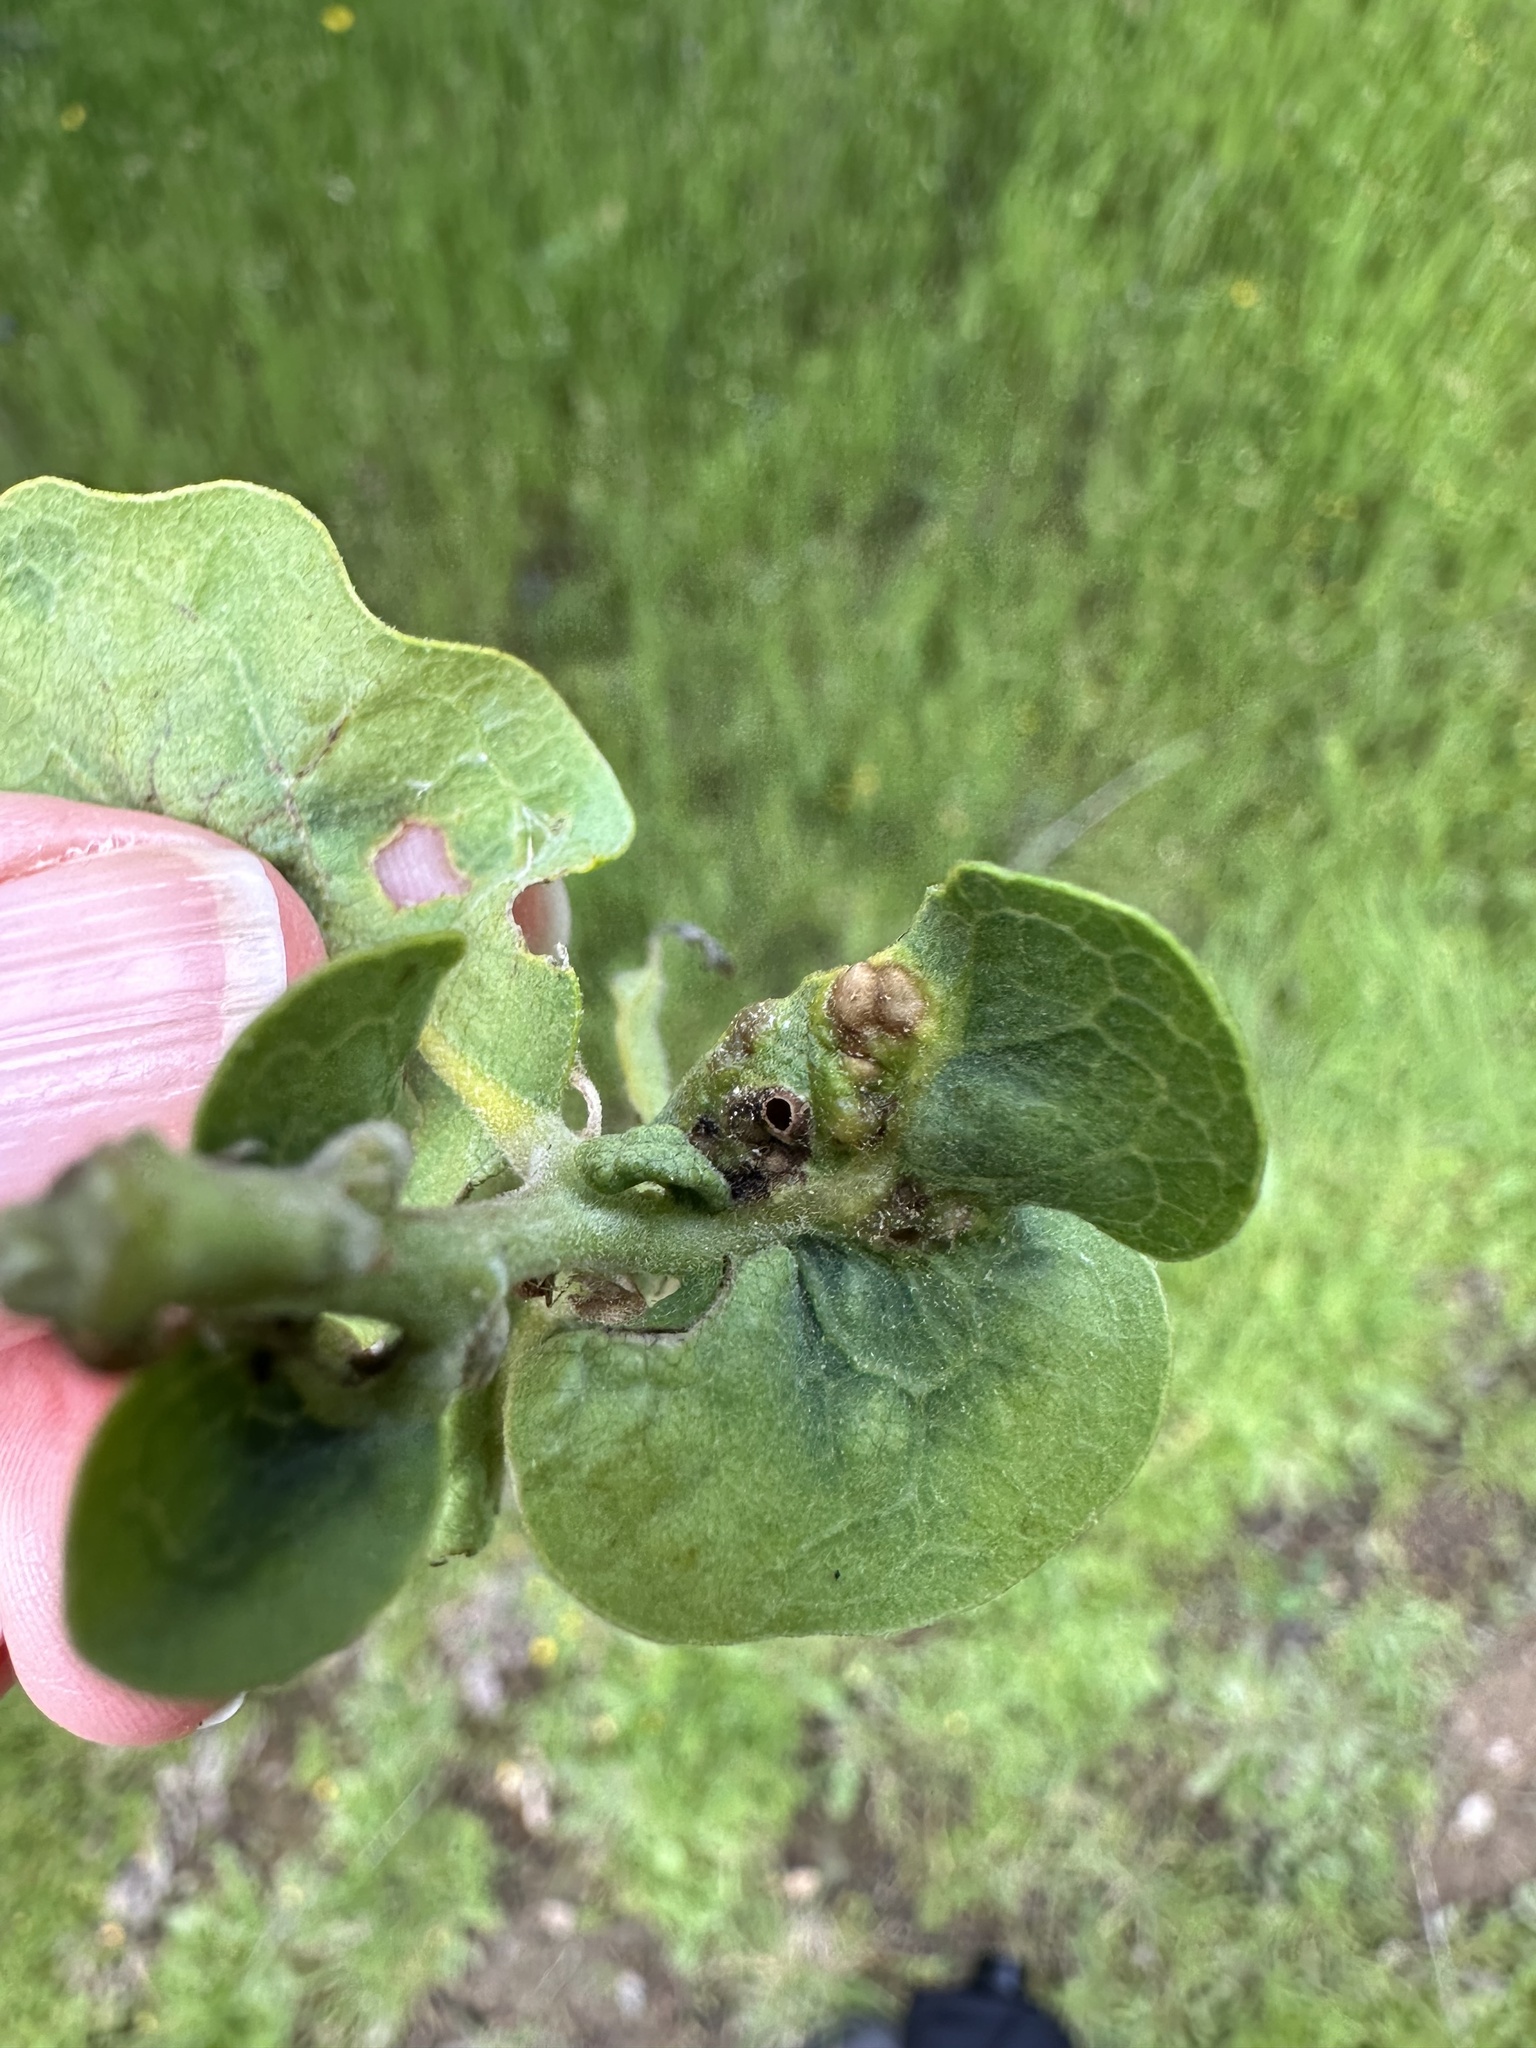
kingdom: Animalia
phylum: Arthropoda
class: Insecta
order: Hymenoptera
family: Cynipidae
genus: Neuroterus
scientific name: Neuroterus saltarius
